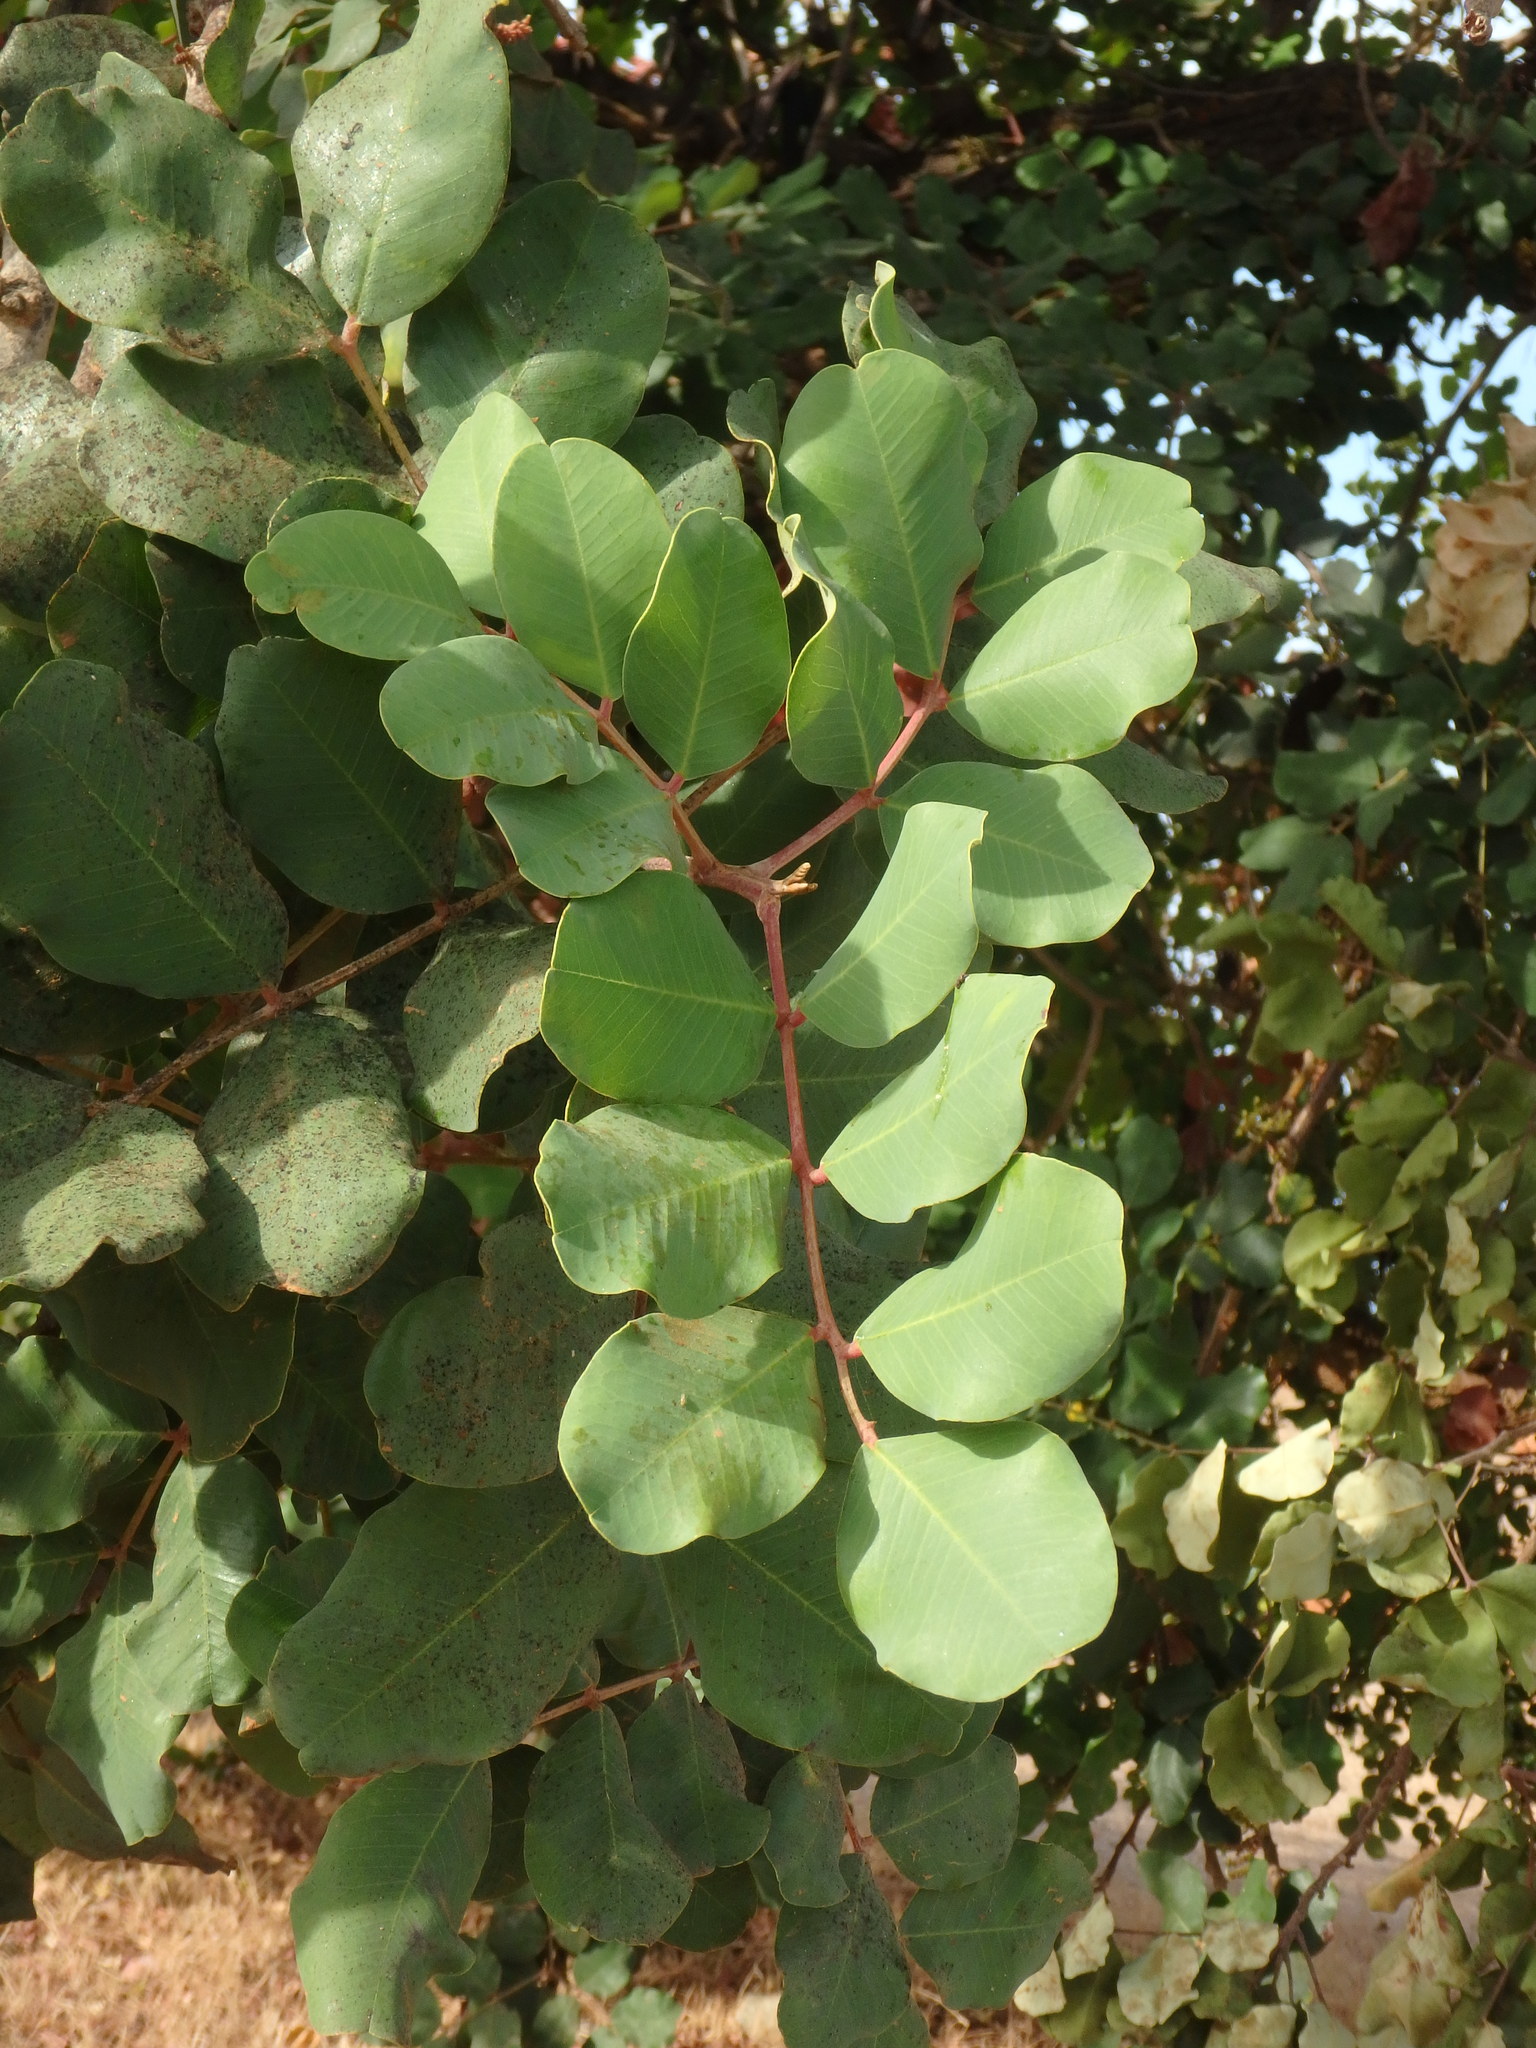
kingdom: Plantae
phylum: Tracheophyta
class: Magnoliopsida
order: Fabales
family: Fabaceae
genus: Ceratonia
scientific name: Ceratonia siliqua
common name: Carob
